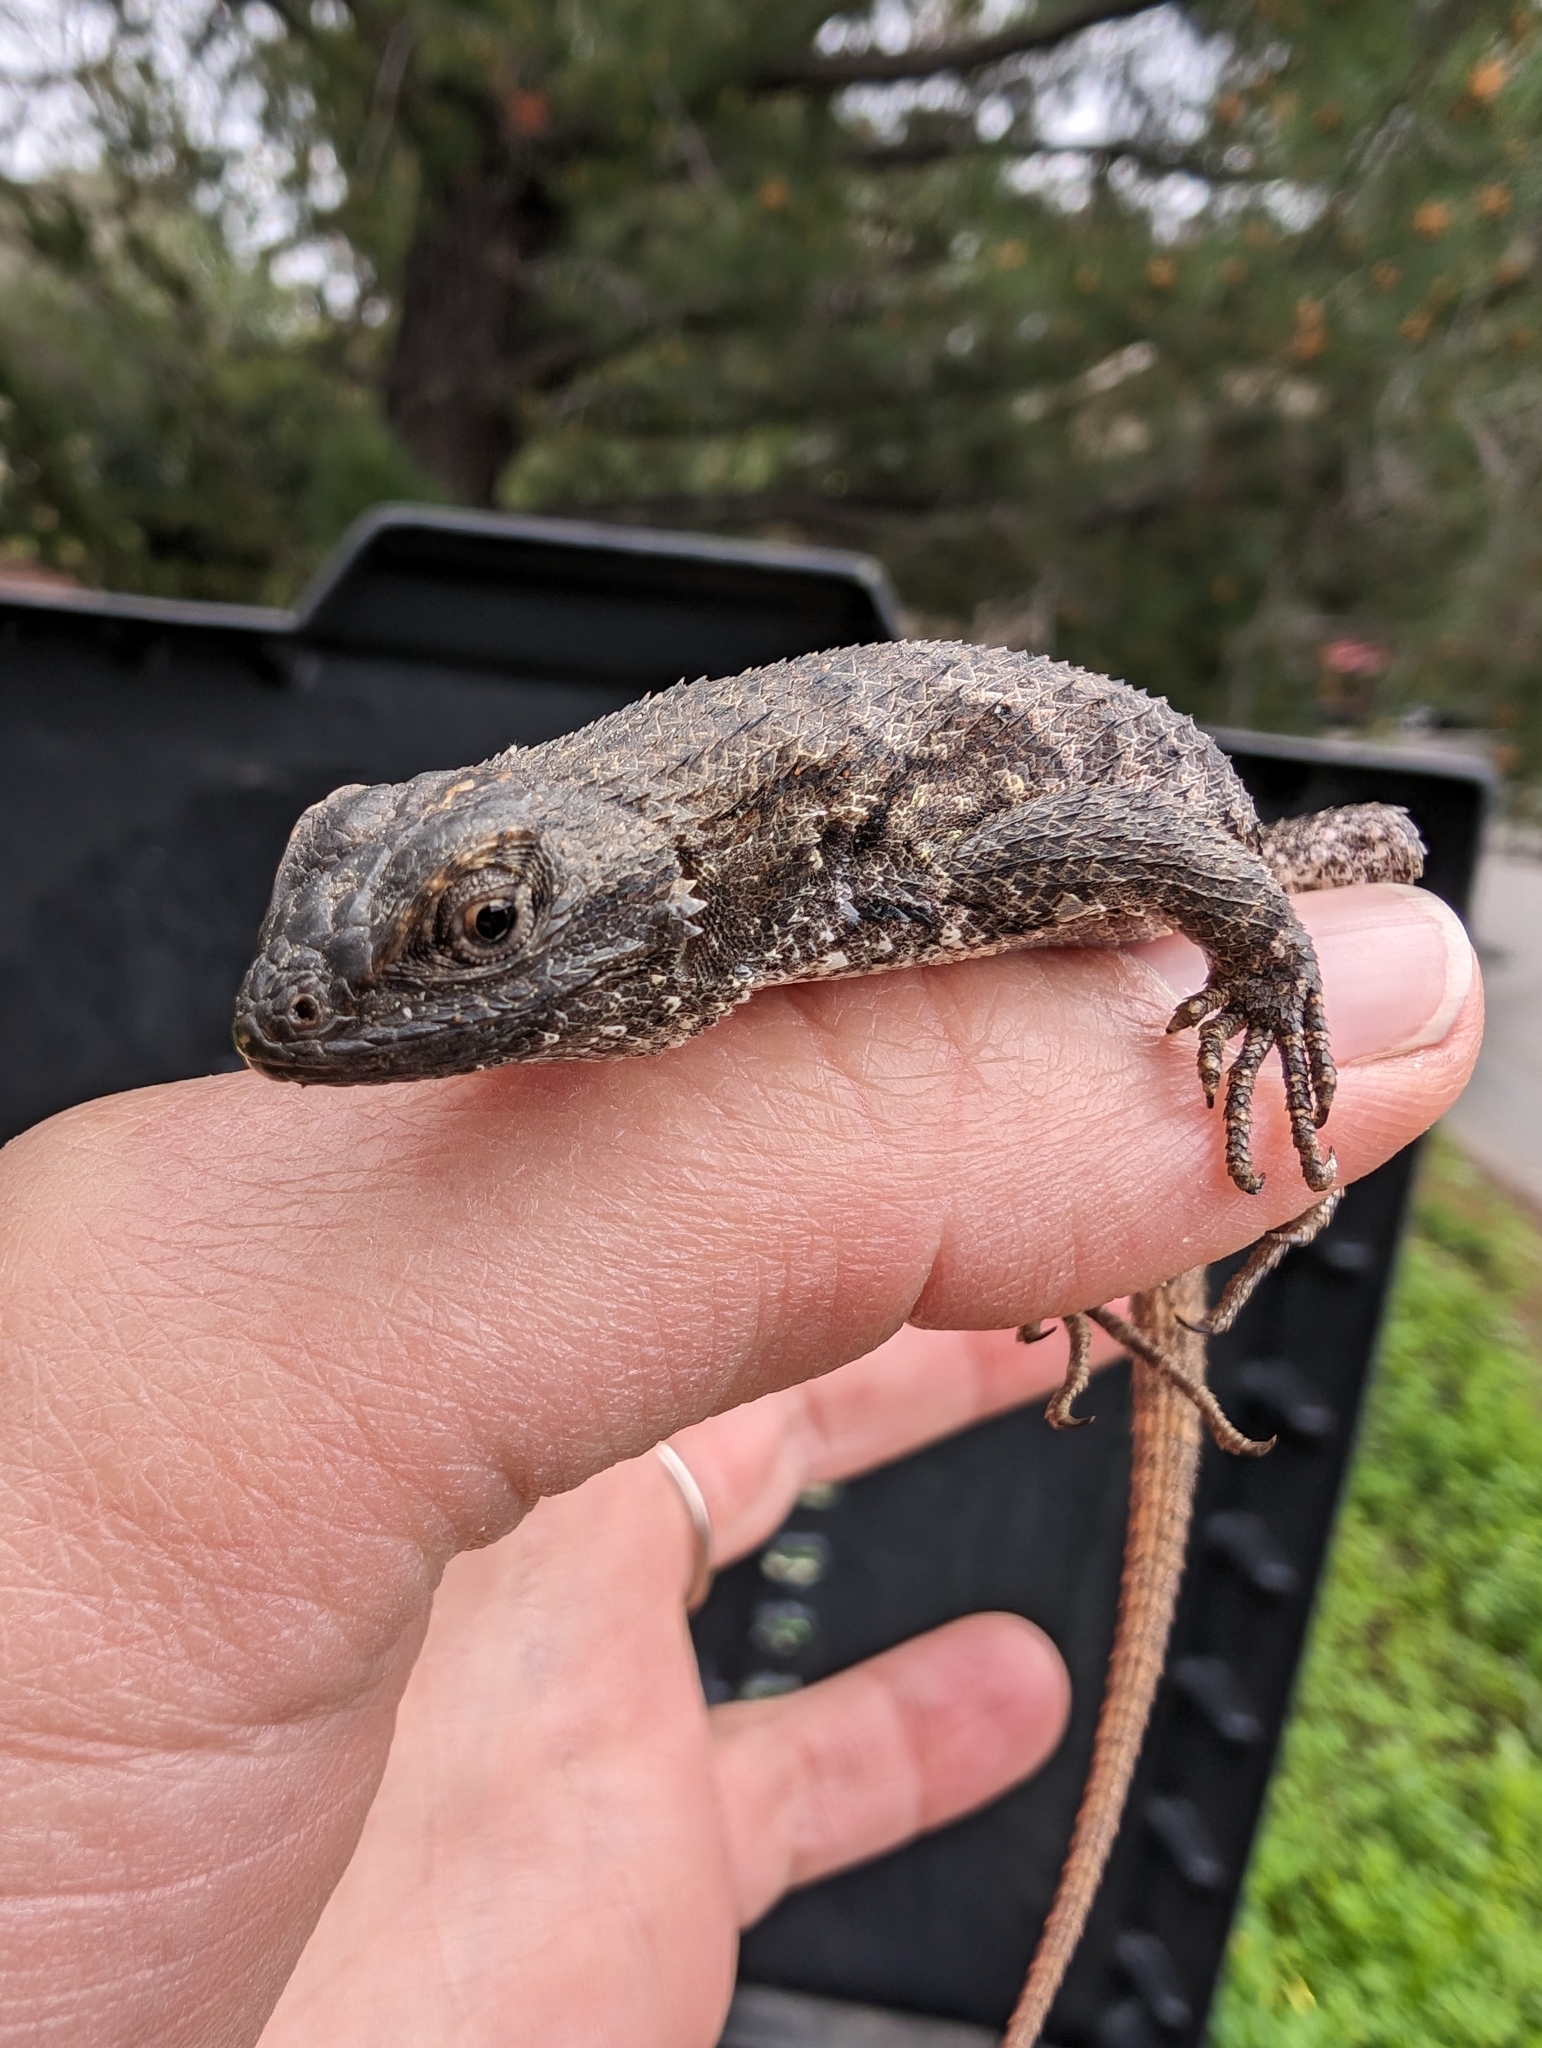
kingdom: Animalia
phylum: Chordata
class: Squamata
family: Phrynosomatidae
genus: Sceloporus
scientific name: Sceloporus occidentalis
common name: Western fence lizard
